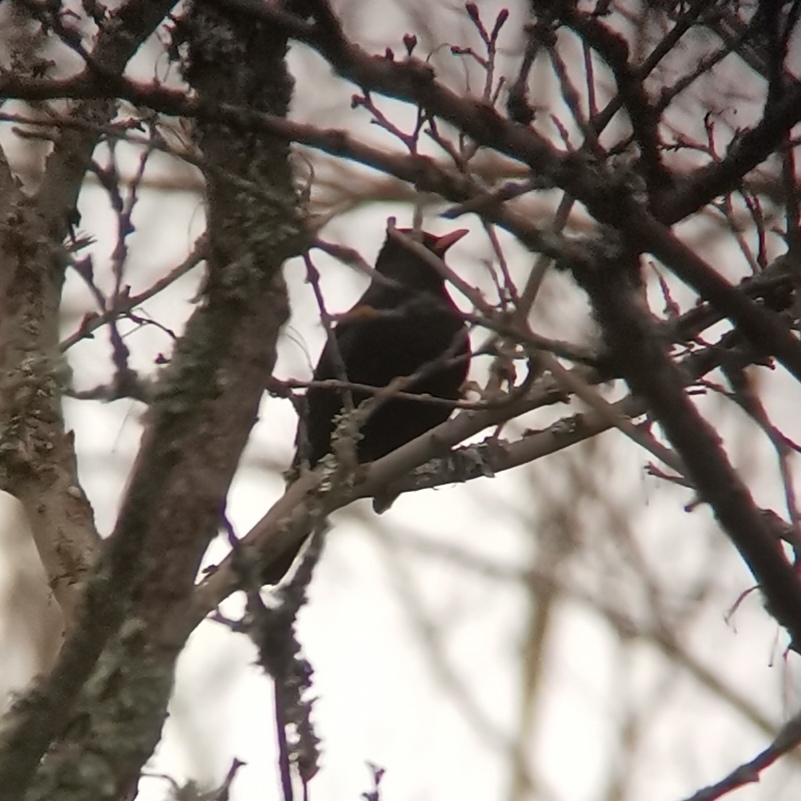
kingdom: Animalia
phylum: Chordata
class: Aves
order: Passeriformes
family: Turdidae
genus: Turdus
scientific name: Turdus merula
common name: Common blackbird
